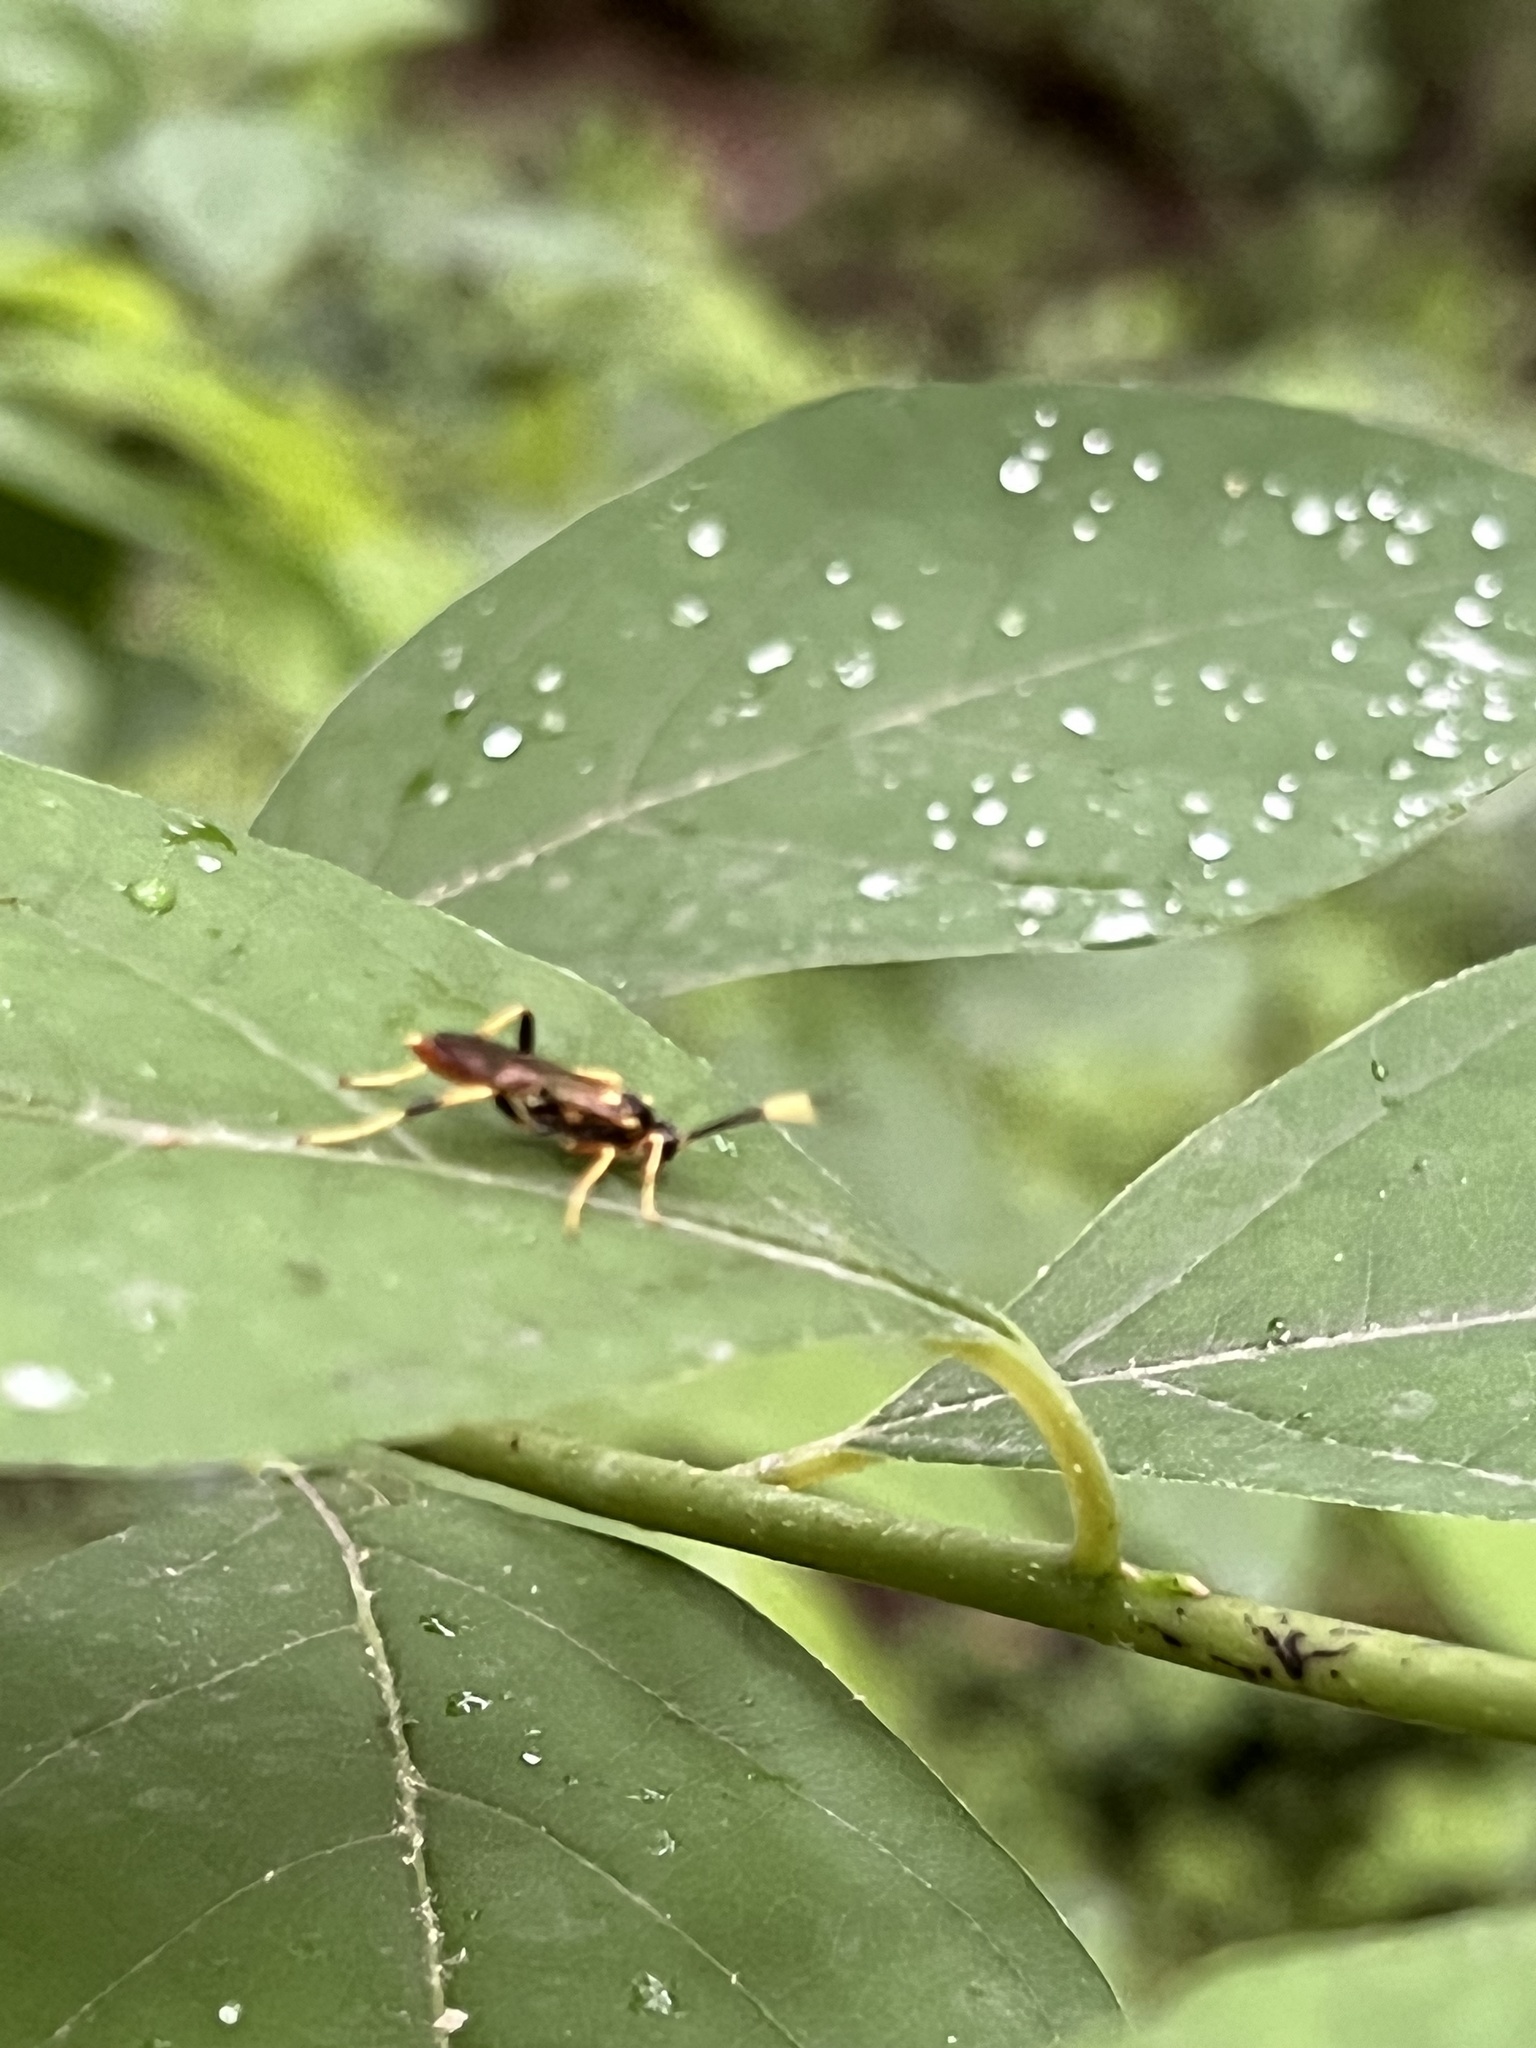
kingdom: Animalia
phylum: Arthropoda
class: Insecta
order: Hymenoptera
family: Ichneumonidae
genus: Polytribax
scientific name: Polytribax contiguus
